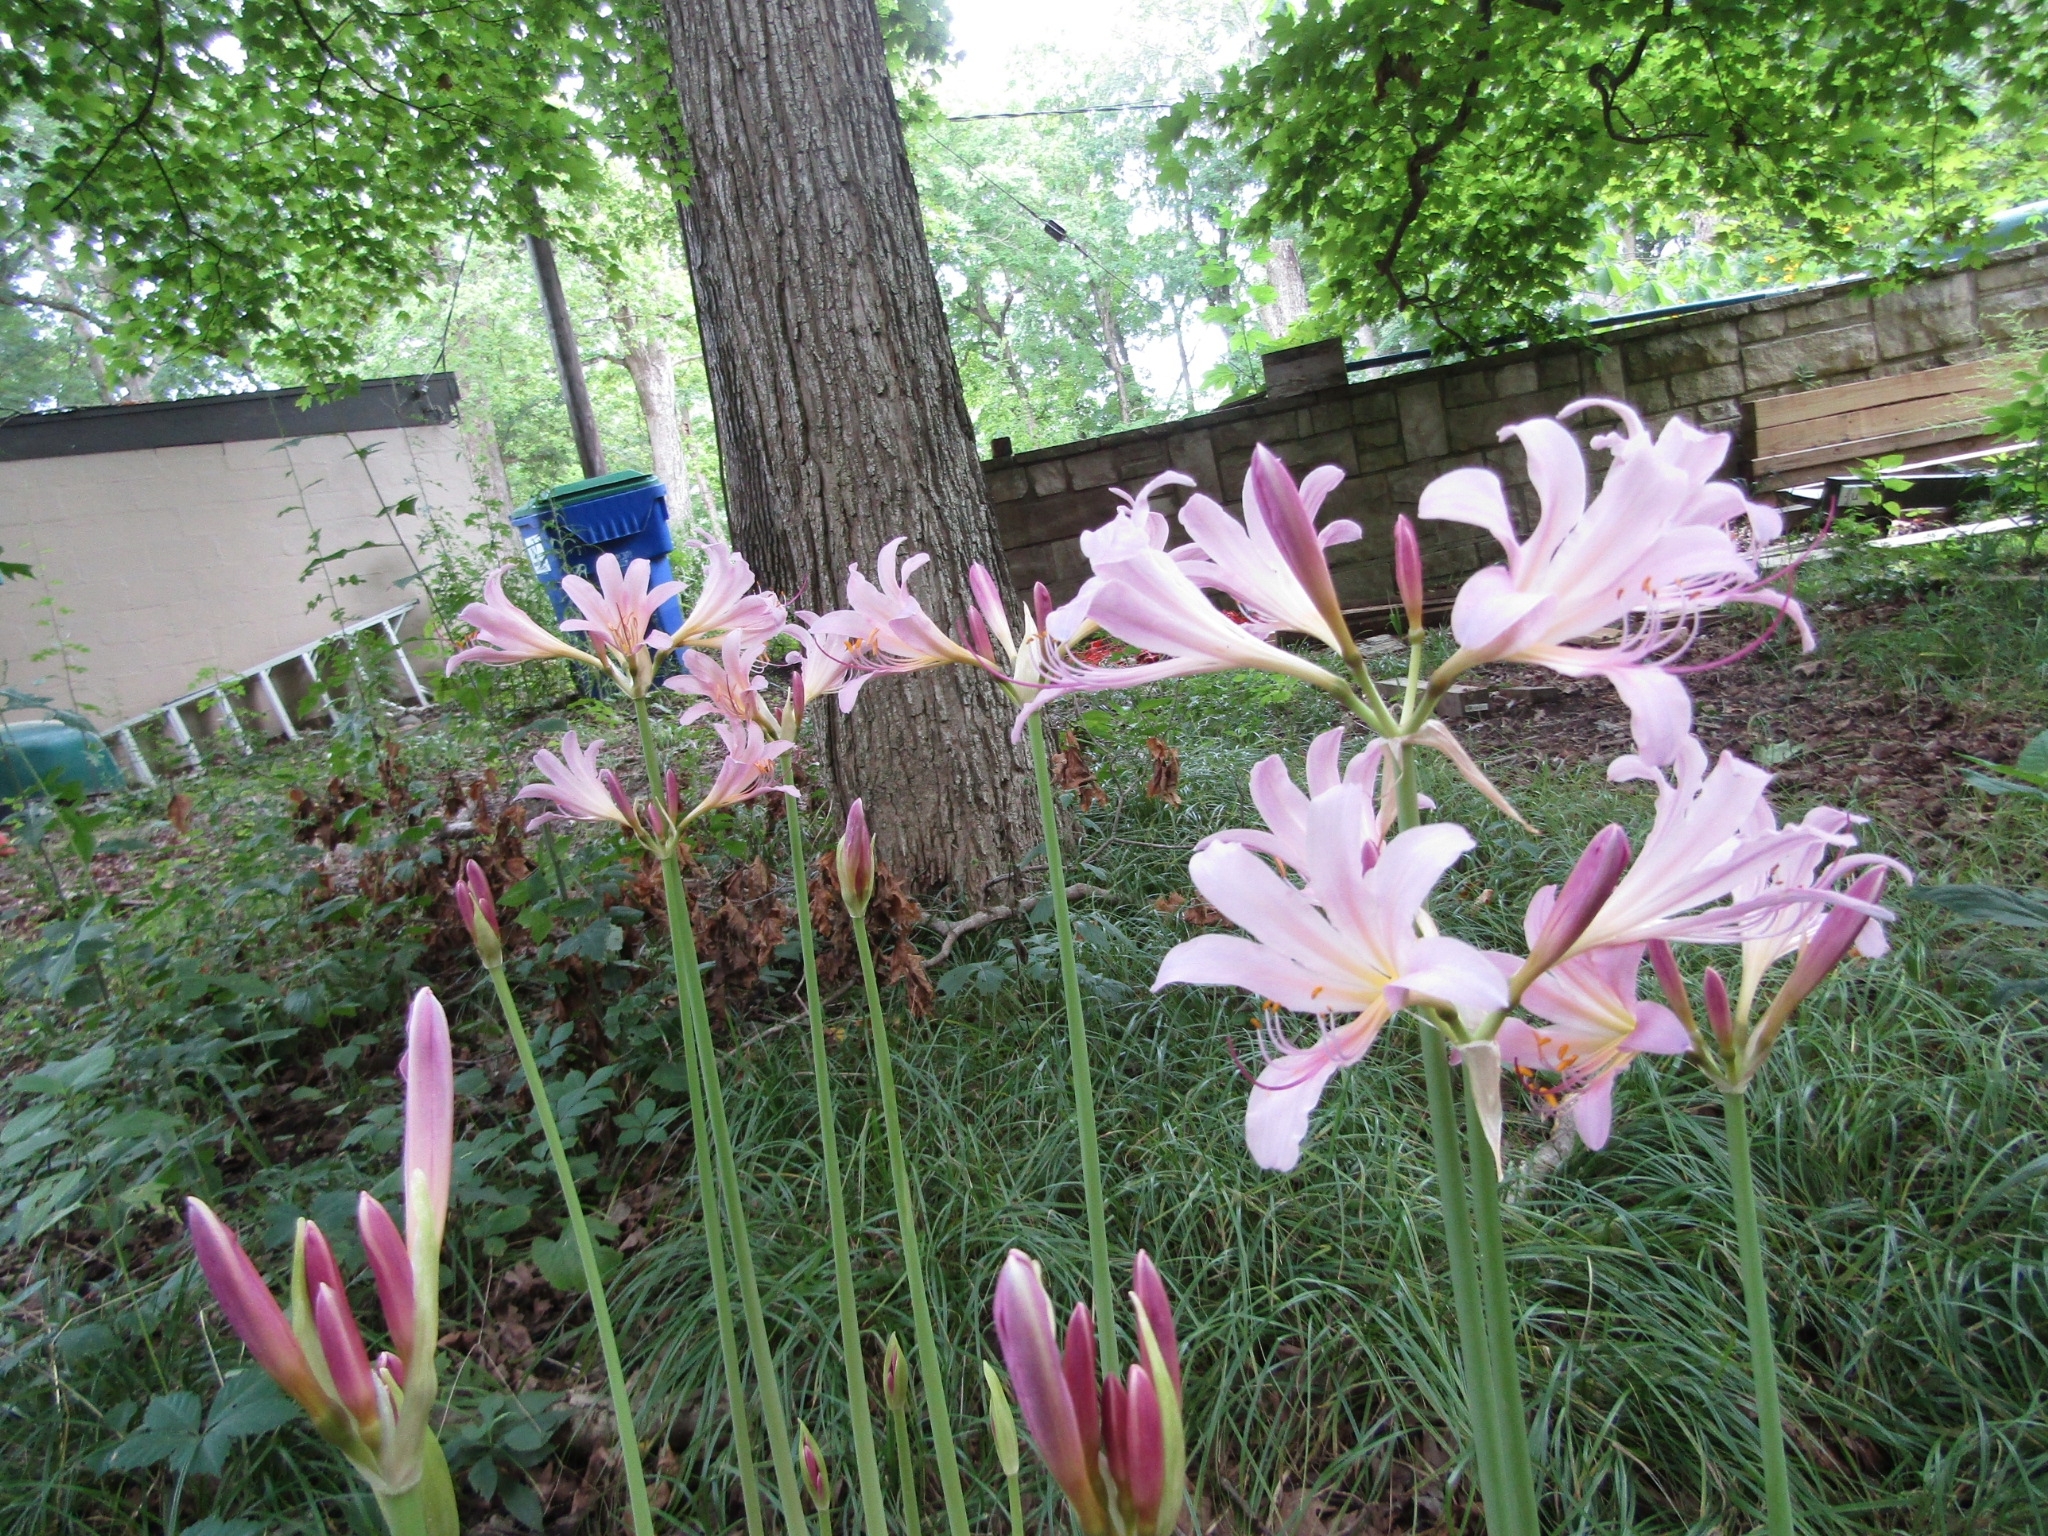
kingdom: Plantae
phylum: Tracheophyta
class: Liliopsida
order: Asparagales
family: Amaryllidaceae
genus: Lycoris
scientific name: Lycoris squamigera
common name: Magic-lily
